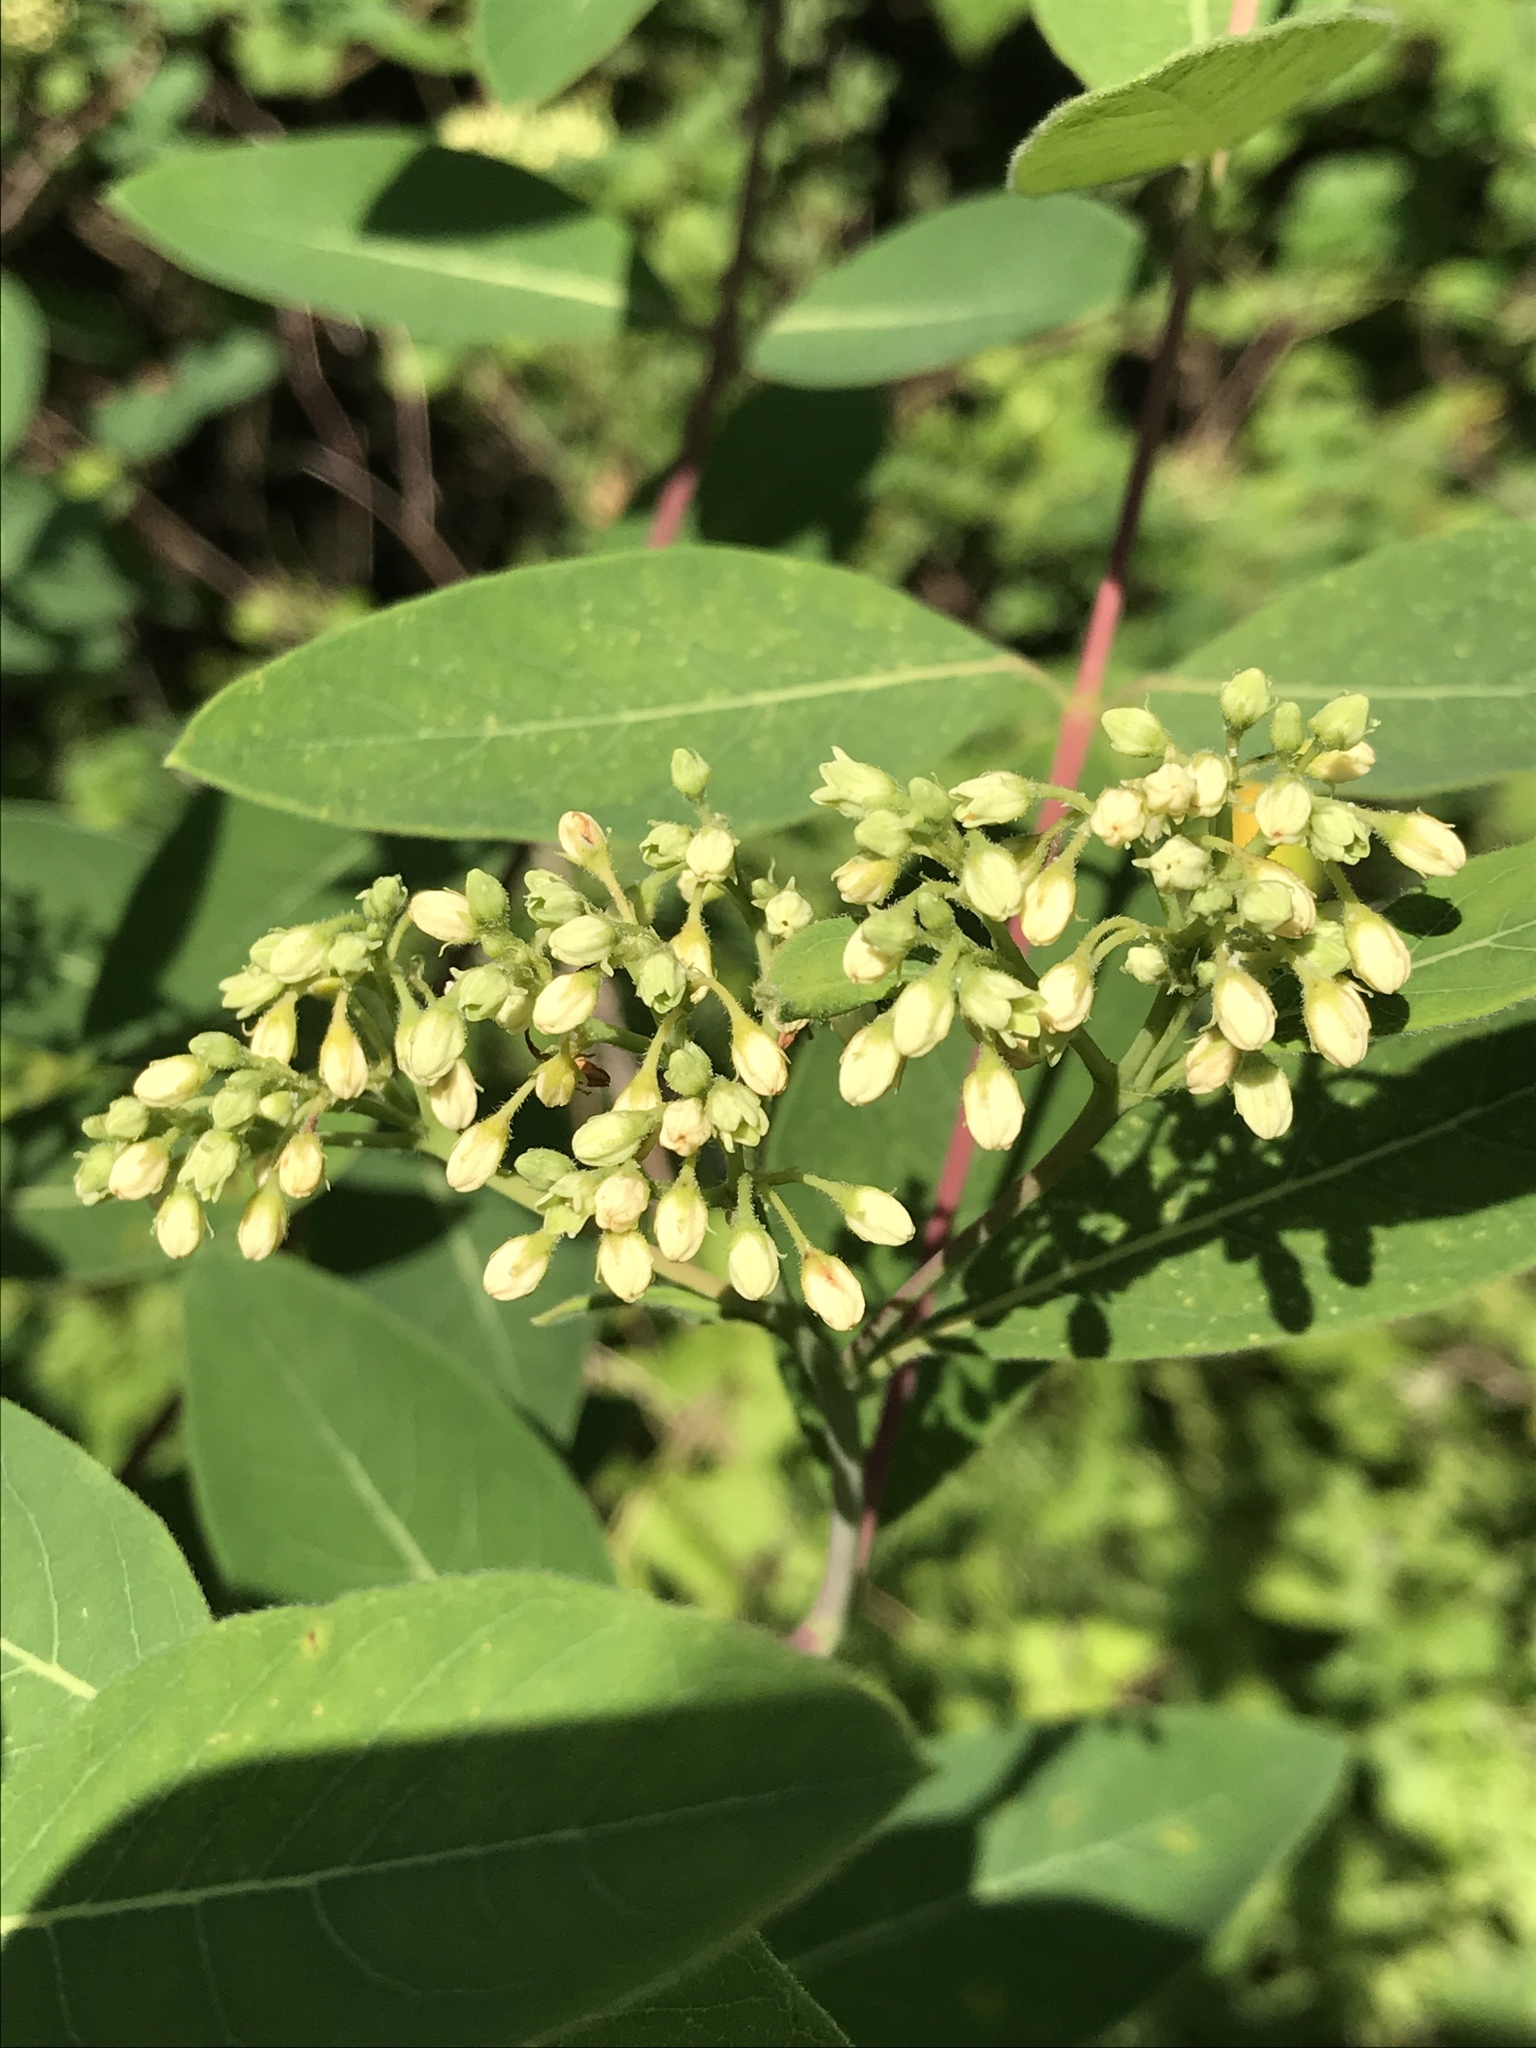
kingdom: Plantae
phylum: Tracheophyta
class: Magnoliopsida
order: Gentianales
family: Apocynaceae
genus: Apocynum
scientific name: Apocynum cannabinum
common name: Hemp dogbane
